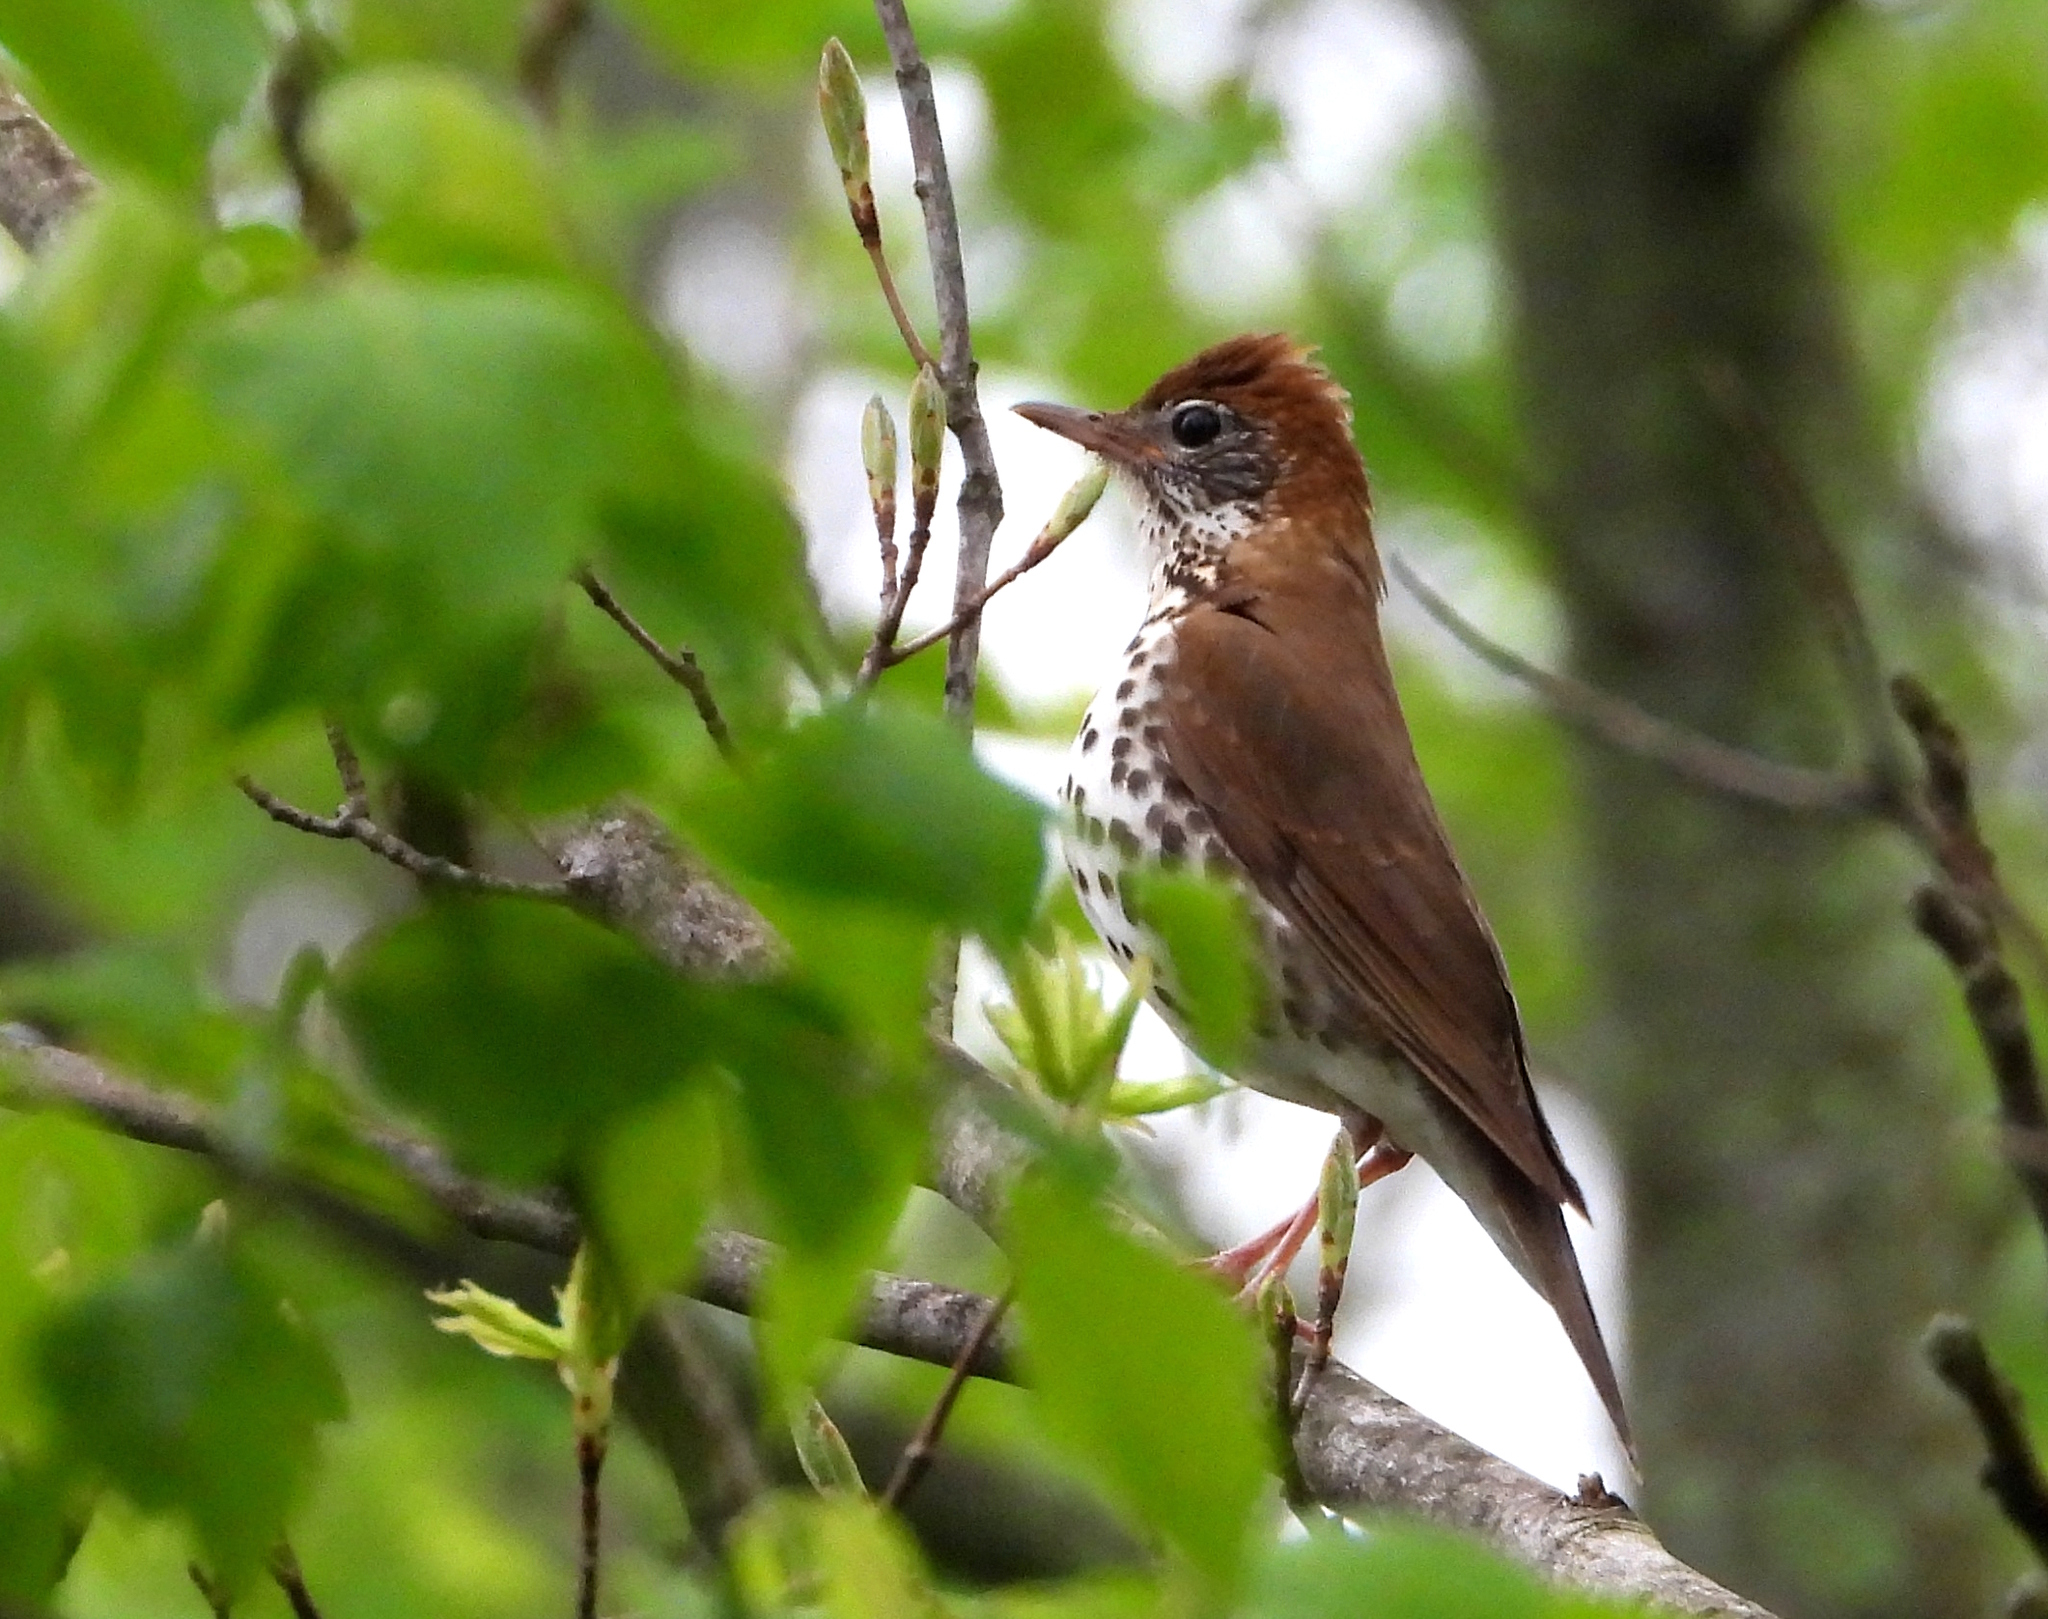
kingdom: Animalia
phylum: Chordata
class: Aves
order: Passeriformes
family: Turdidae
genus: Hylocichla
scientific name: Hylocichla mustelina
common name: Wood thrush
